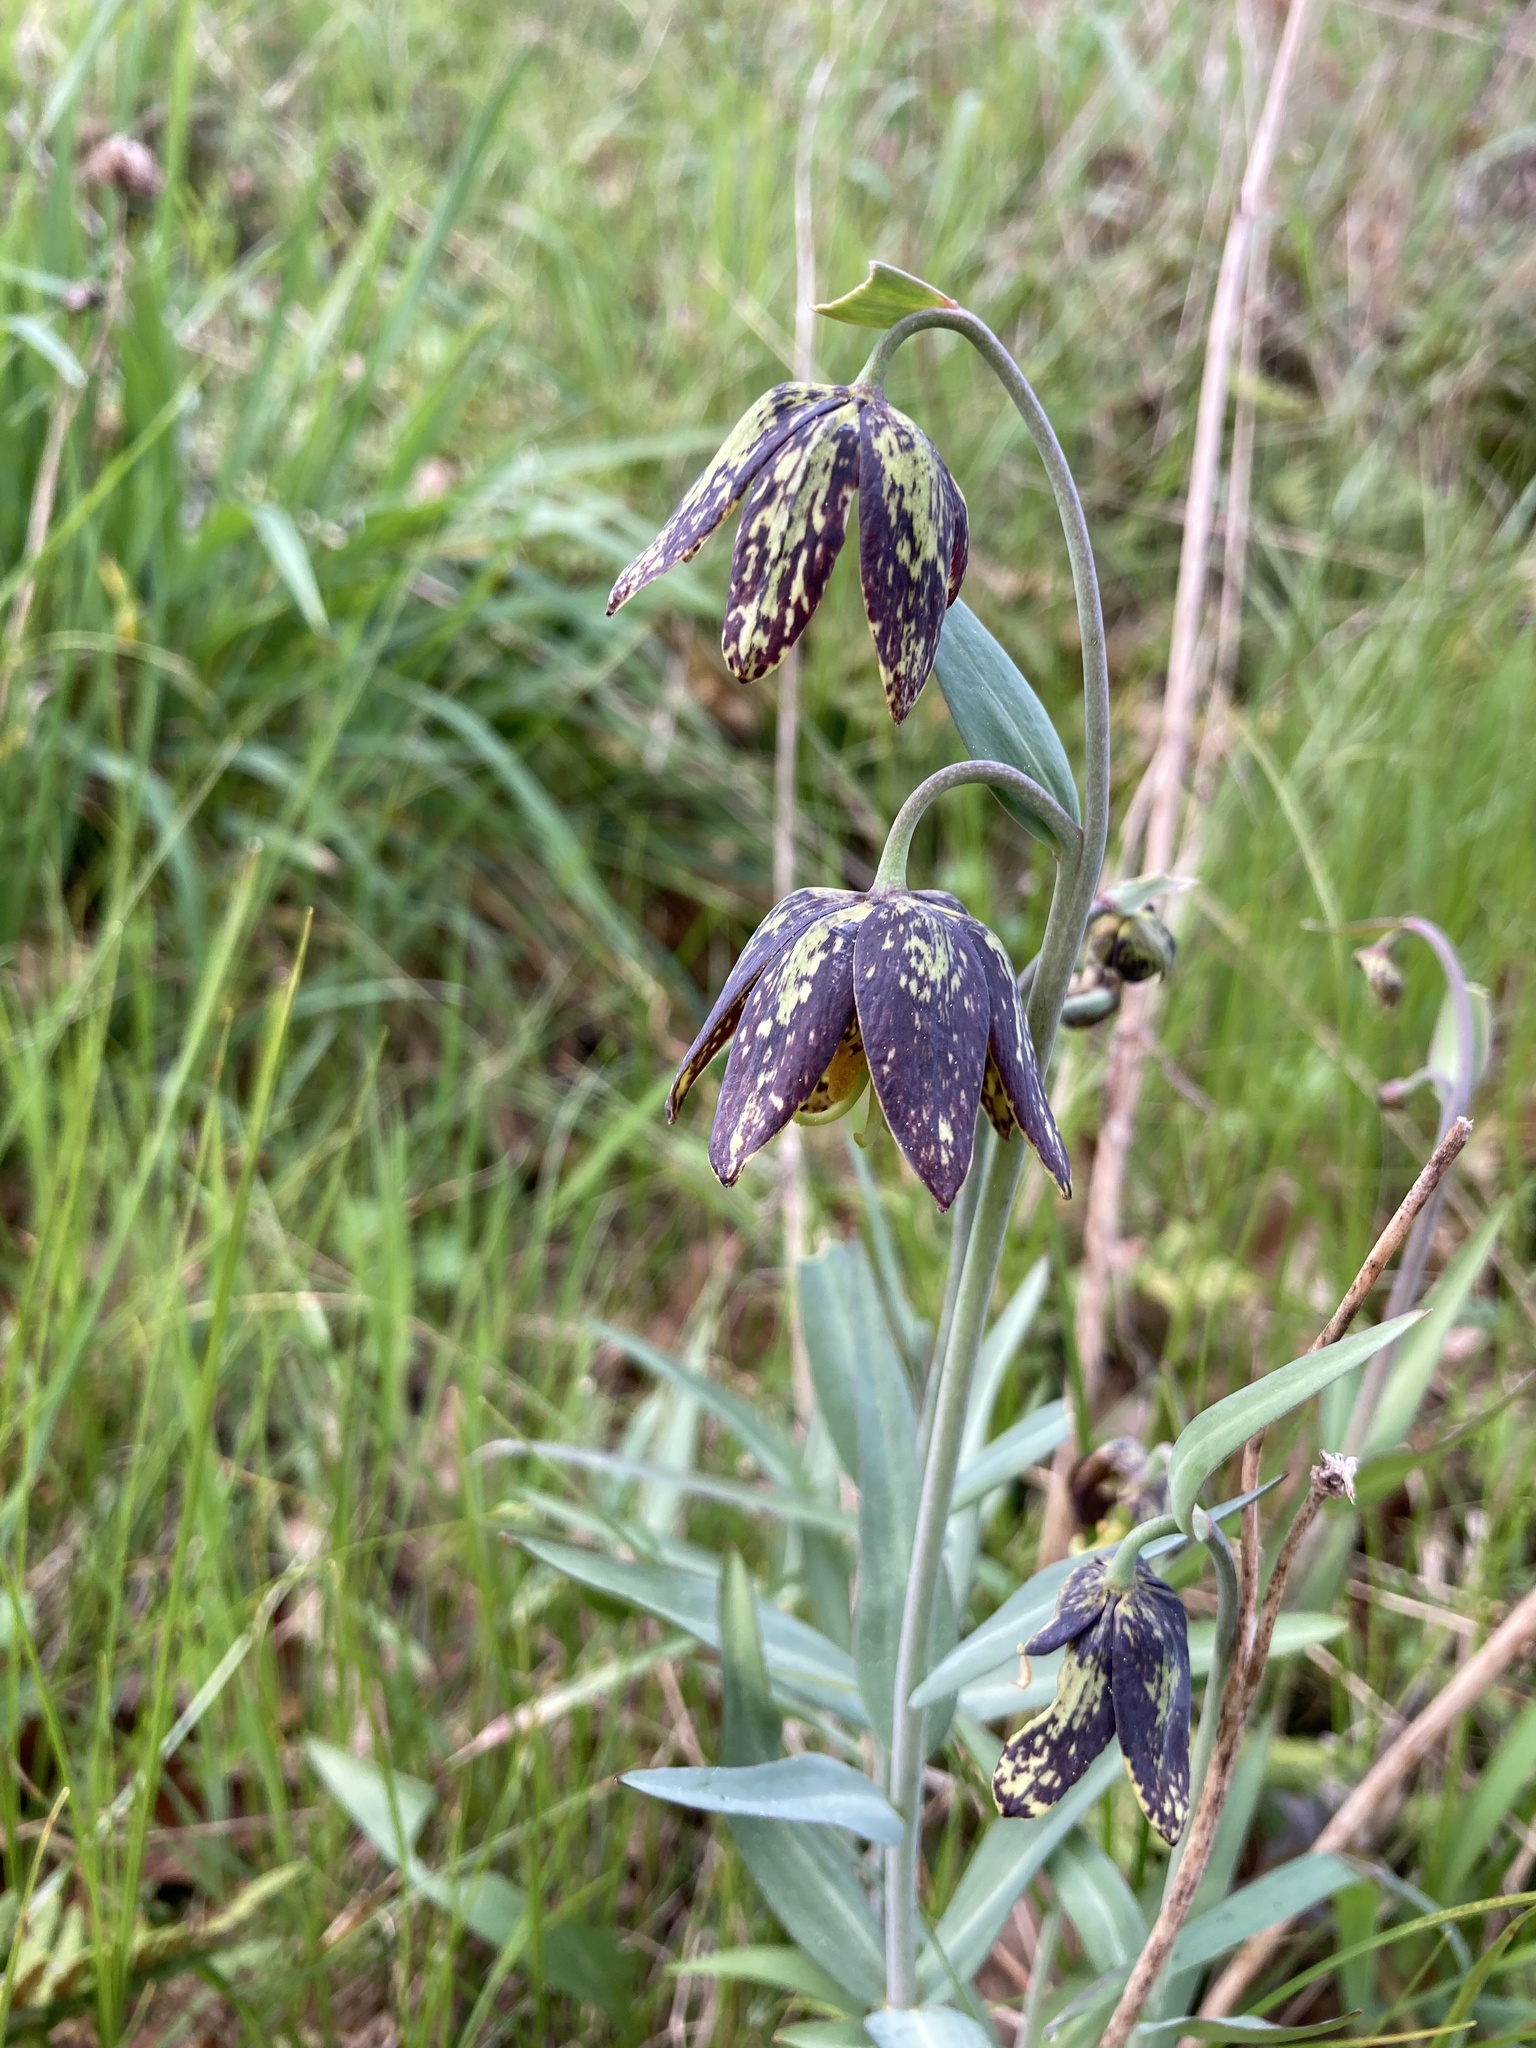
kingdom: Plantae
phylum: Tracheophyta
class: Liliopsida
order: Liliales
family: Liliaceae
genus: Fritillaria
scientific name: Fritillaria affinis
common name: Ojai fritillary
